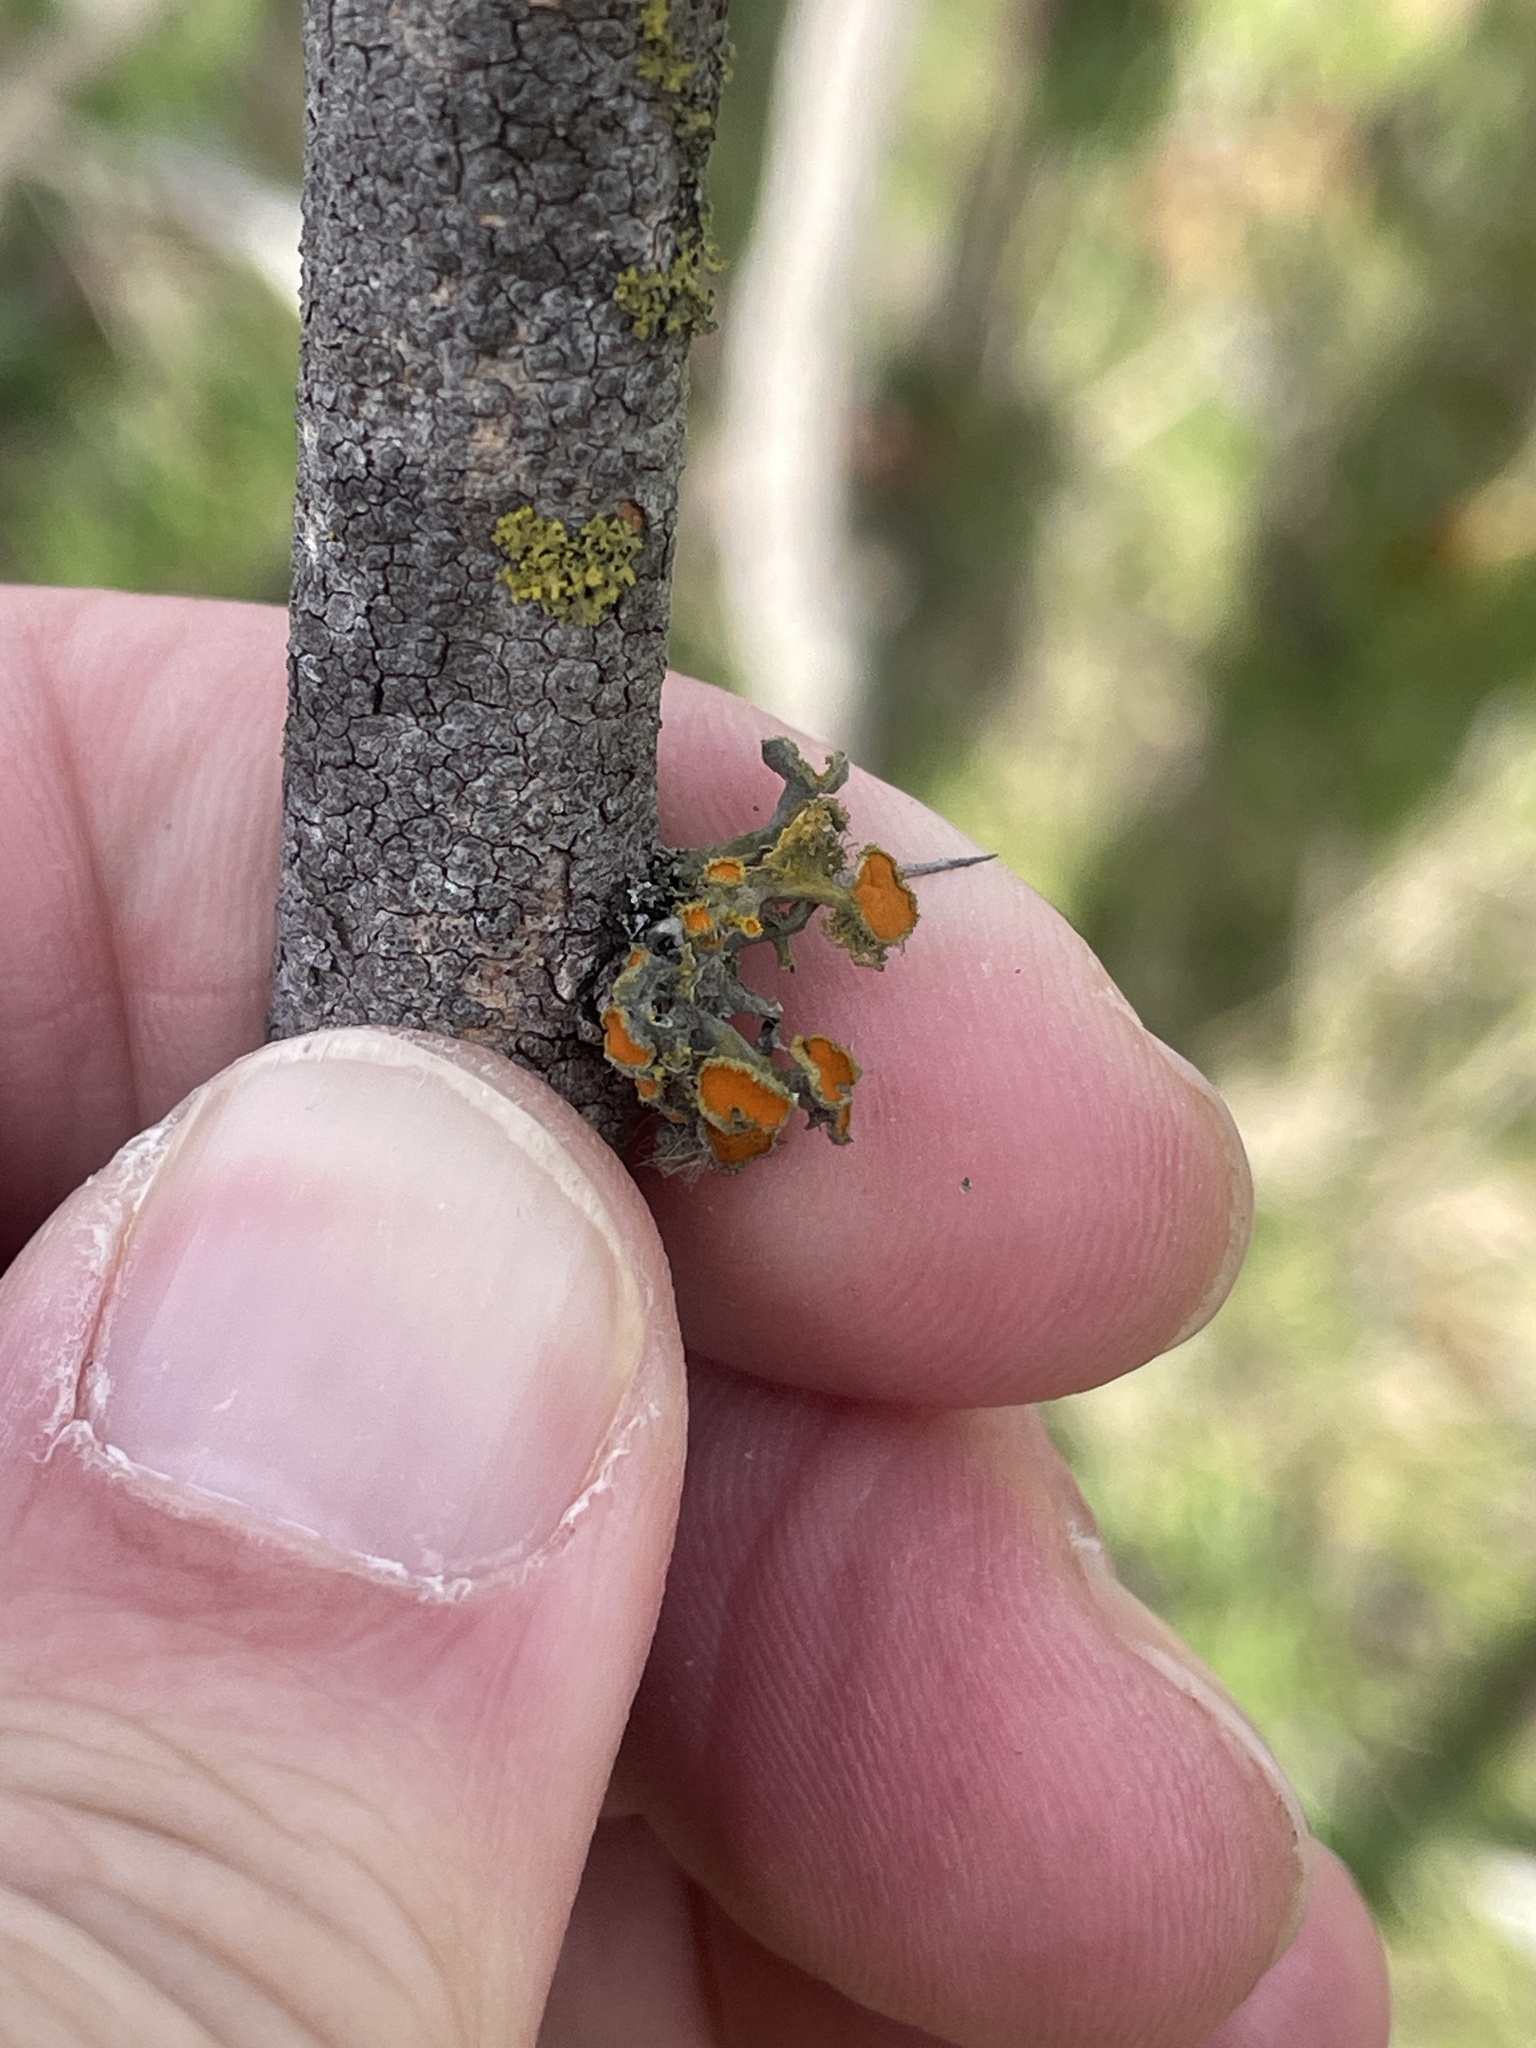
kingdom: Fungi
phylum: Ascomycota
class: Lecanoromycetes
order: Teloschistales
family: Teloschistaceae
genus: Niorma
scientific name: Niorma chrysophthalma
